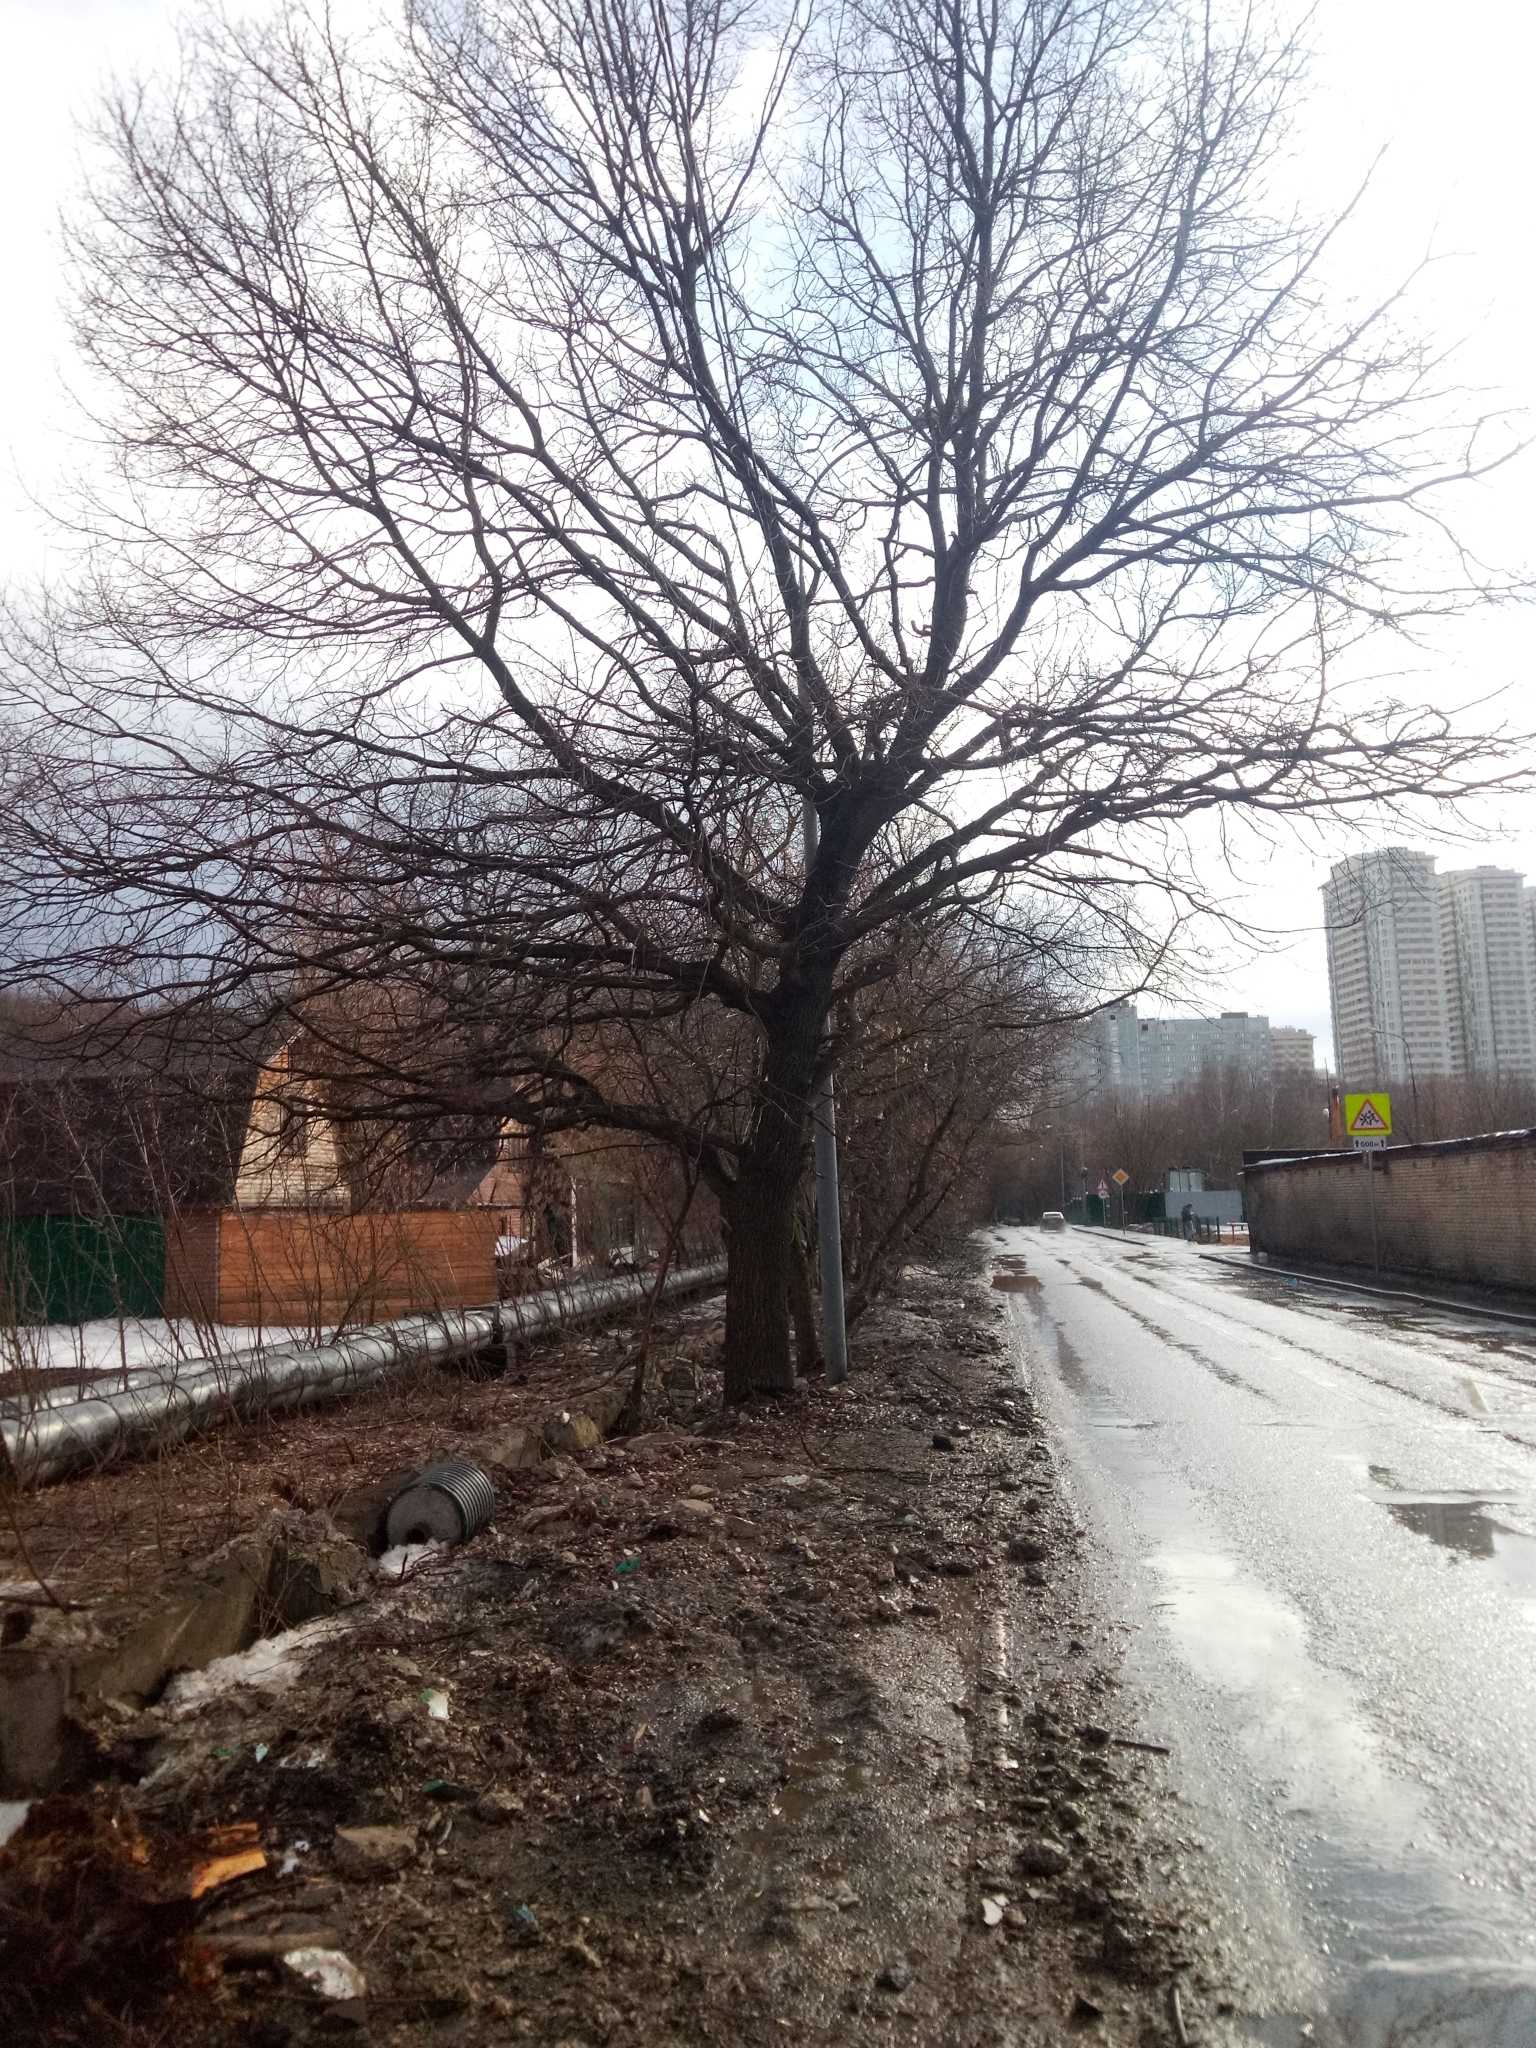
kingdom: Plantae
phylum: Tracheophyta
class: Magnoliopsida
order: Fagales
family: Fagaceae
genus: Quercus
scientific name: Quercus robur
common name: Pedunculate oak
